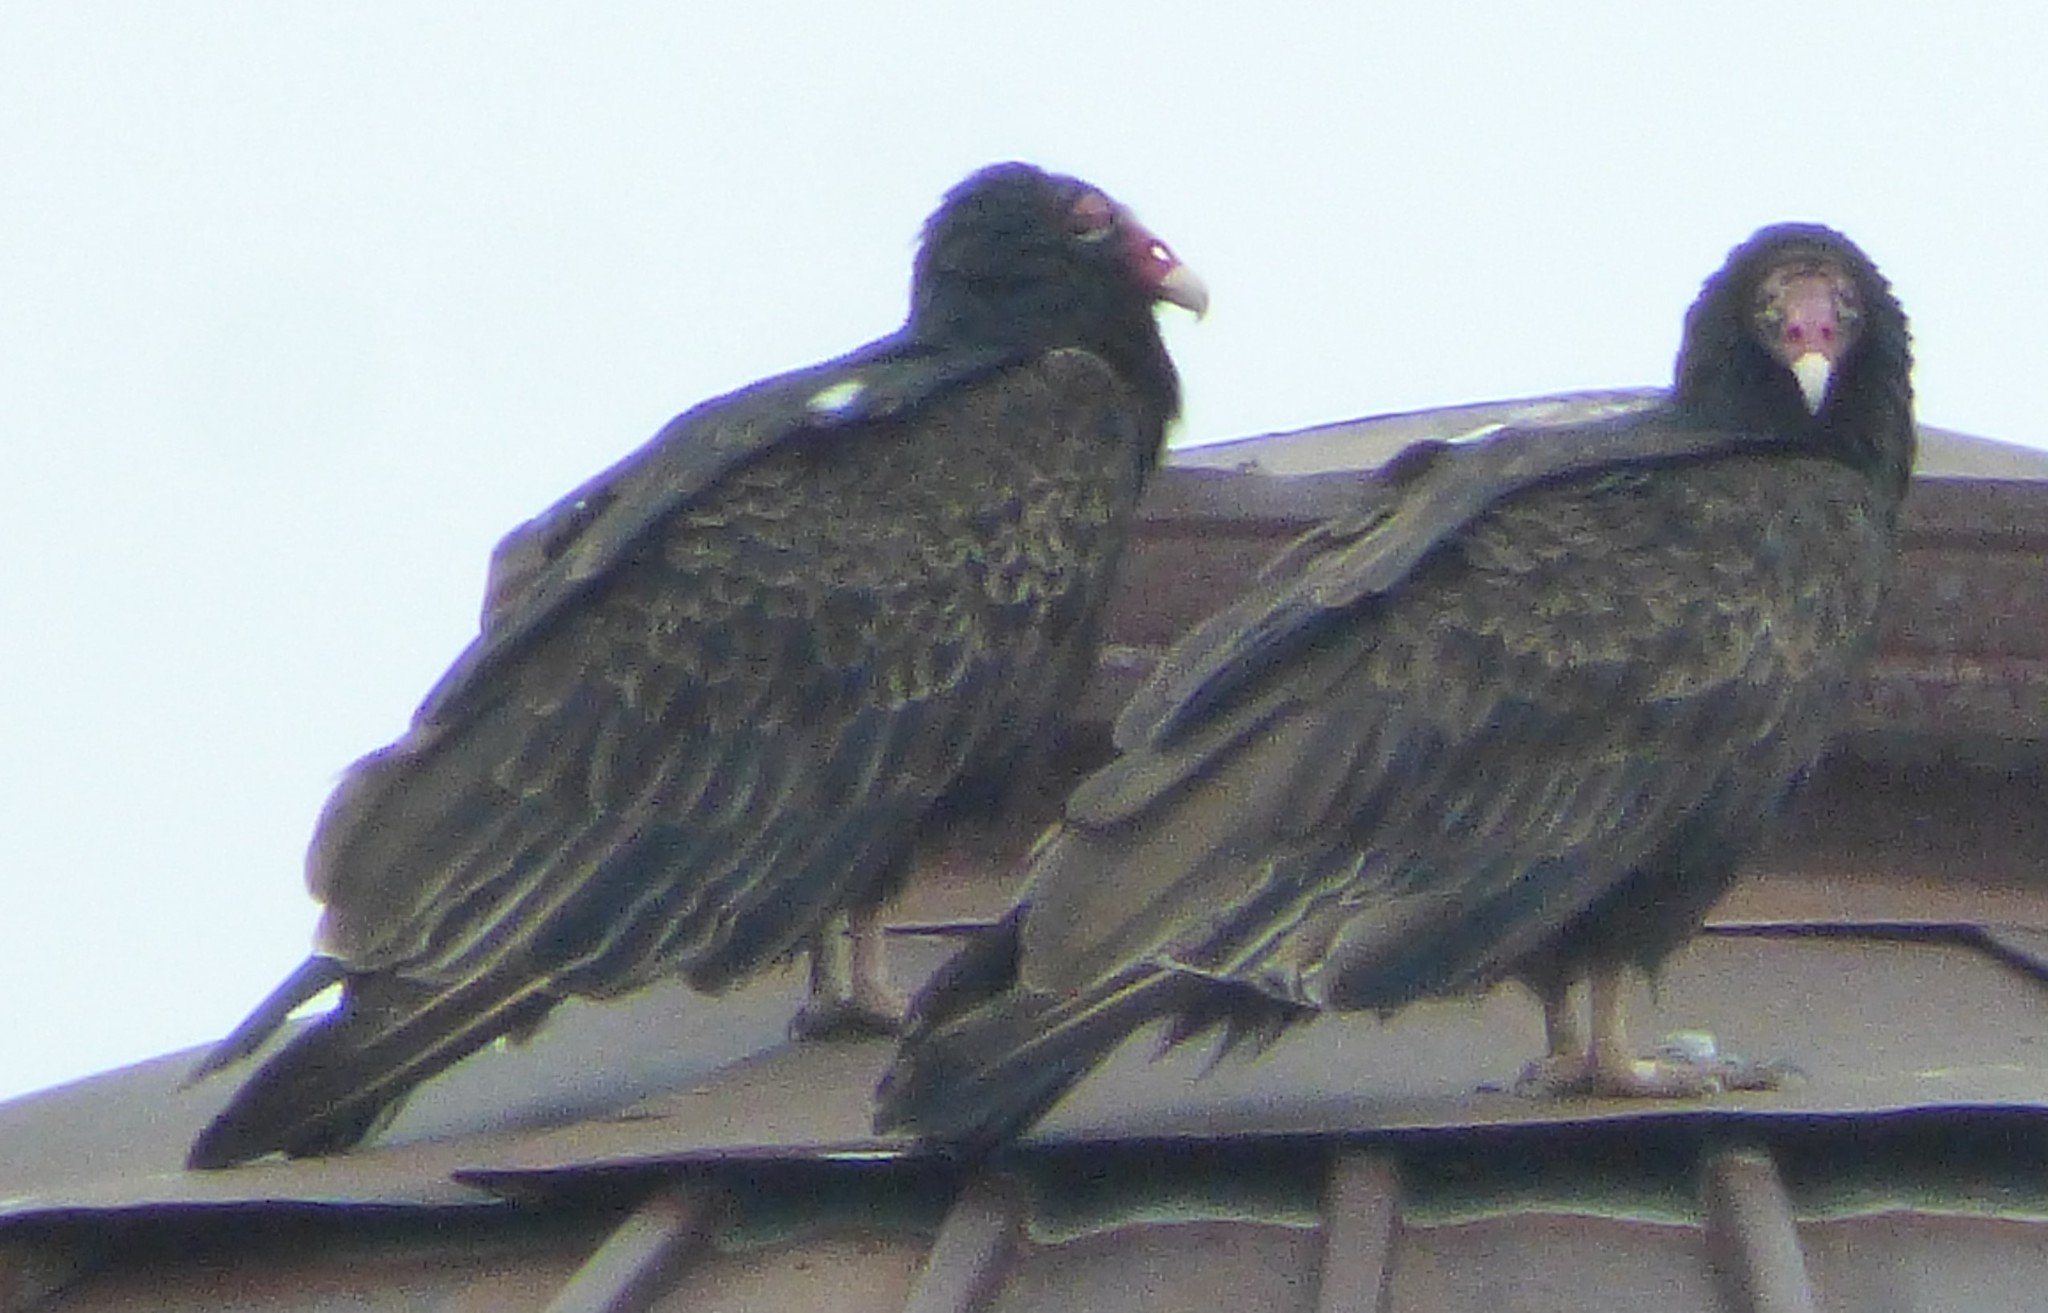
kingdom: Animalia
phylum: Chordata
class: Aves
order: Accipitriformes
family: Cathartidae
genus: Cathartes
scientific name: Cathartes aura
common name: Turkey vulture
